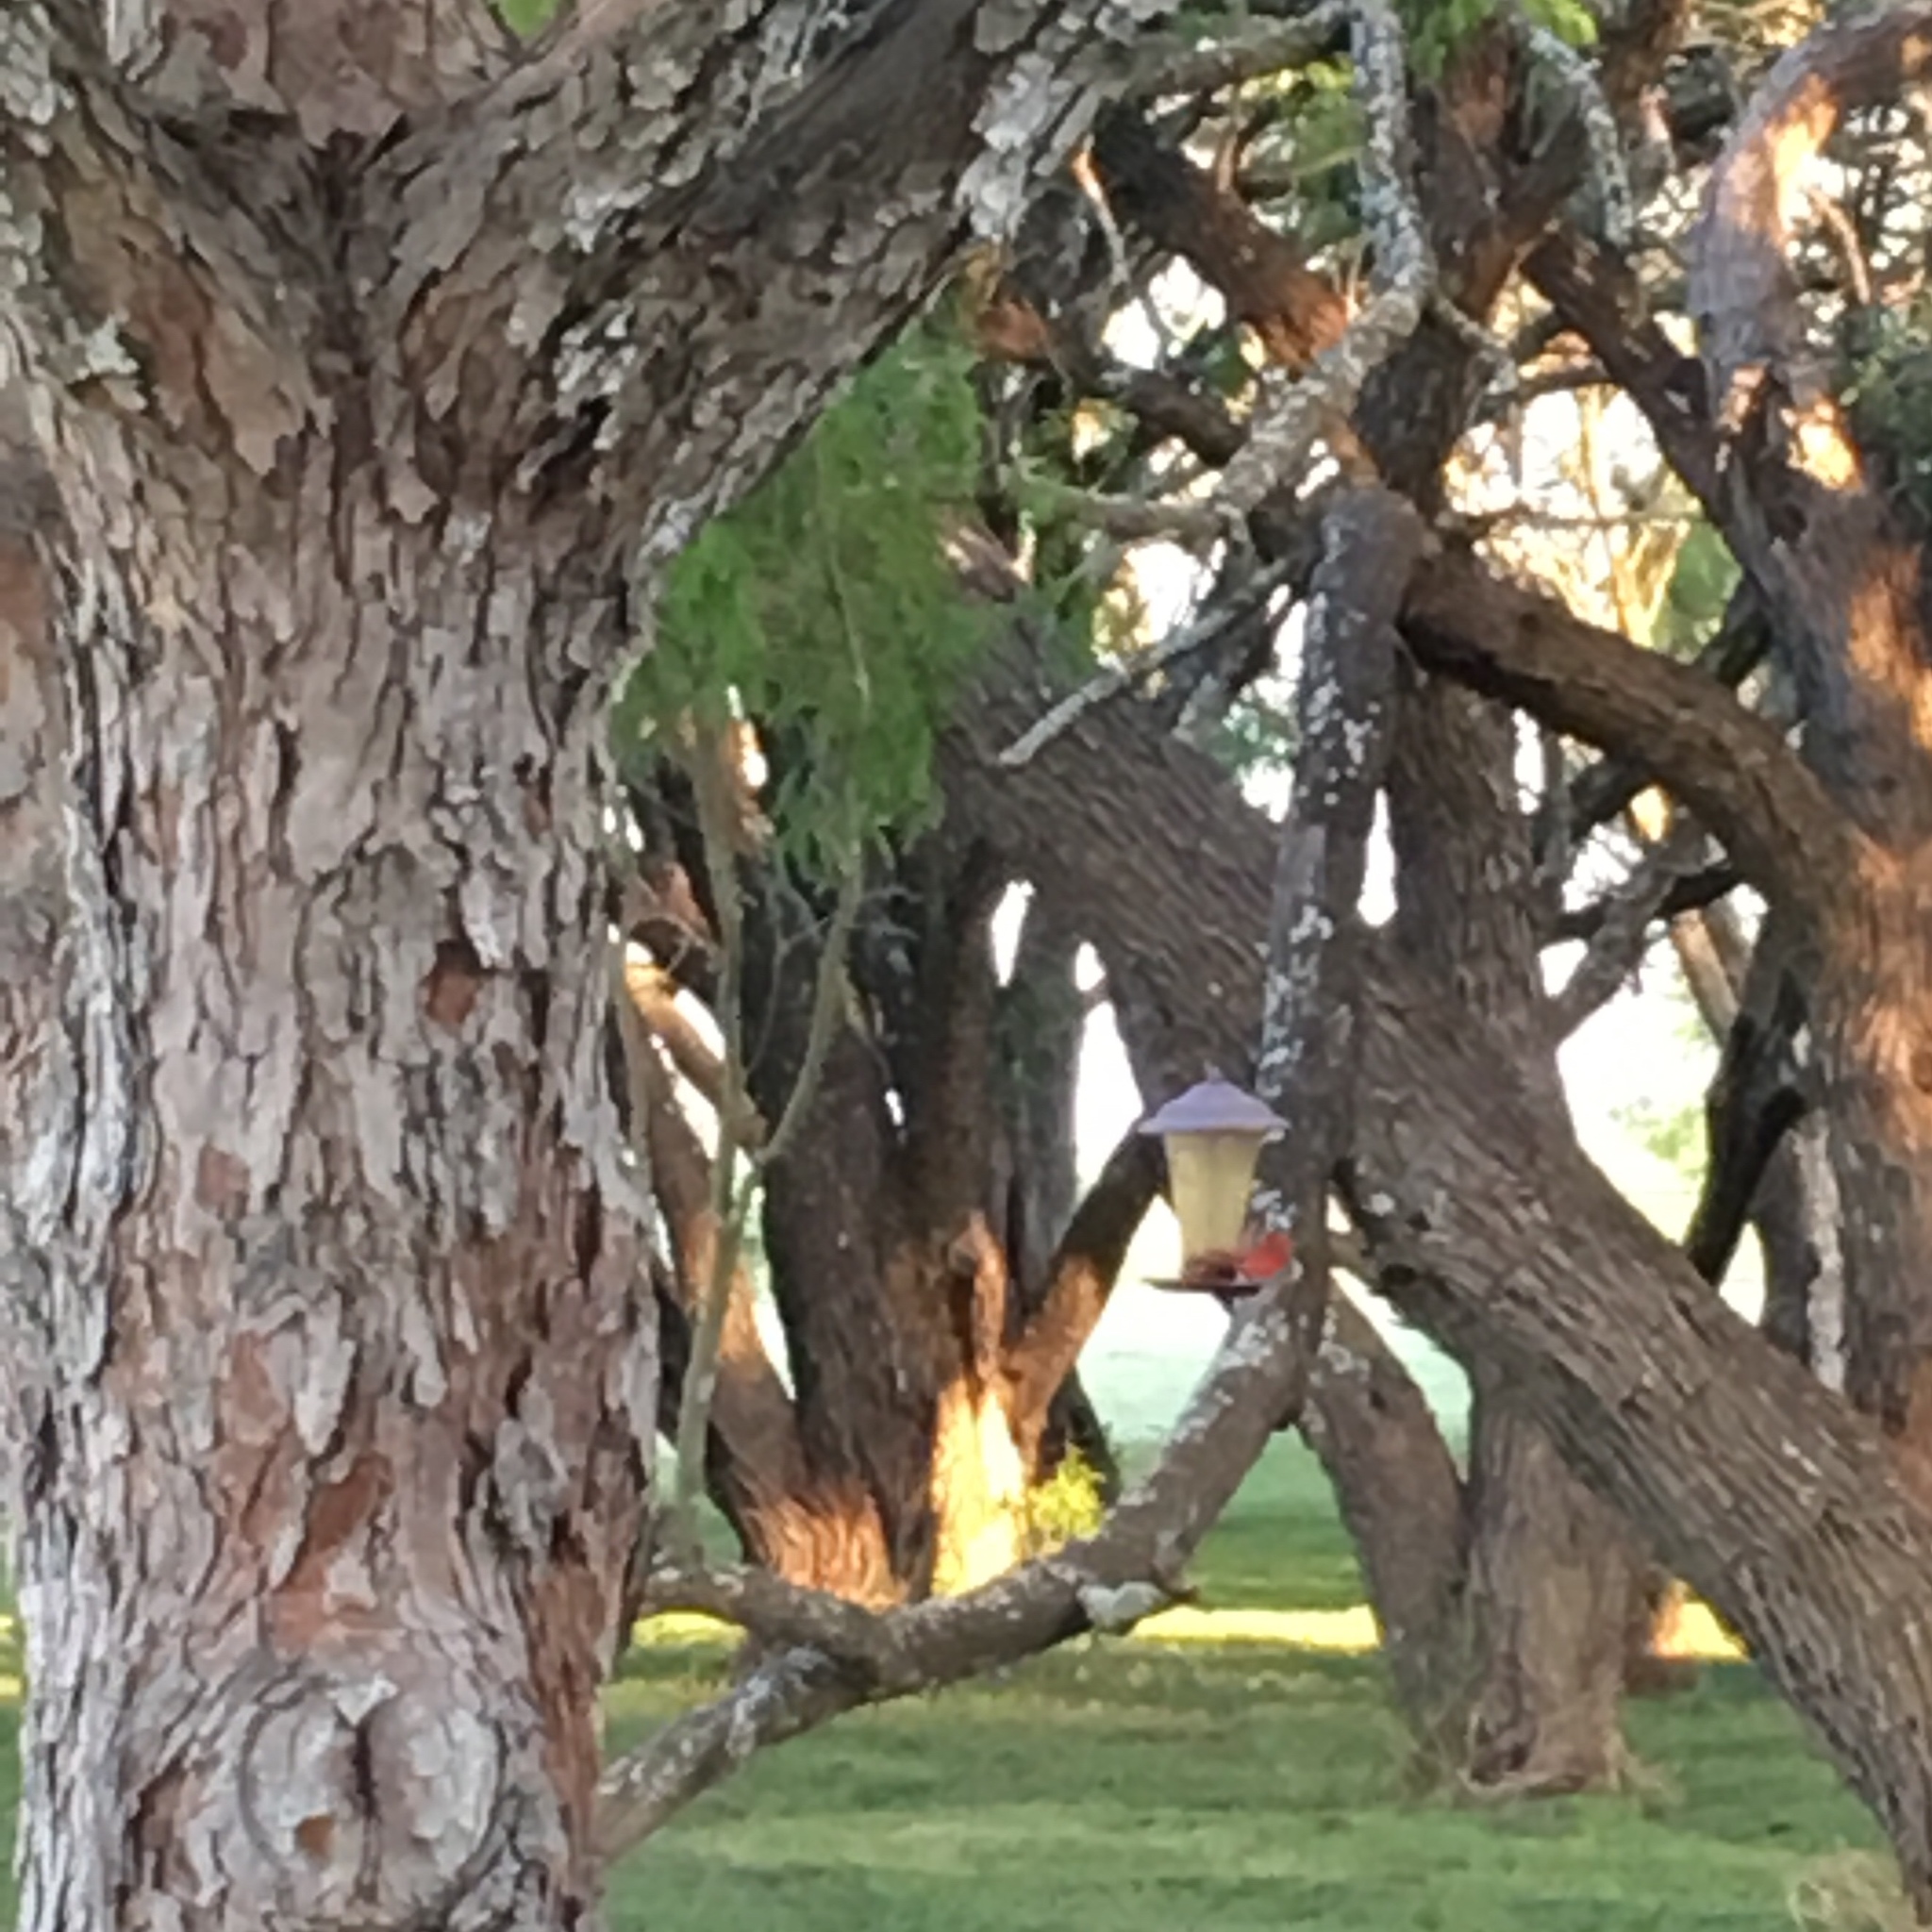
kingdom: Animalia
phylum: Chordata
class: Aves
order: Passeriformes
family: Cardinalidae
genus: Cardinalis
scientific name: Cardinalis cardinalis
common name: Northern cardinal
